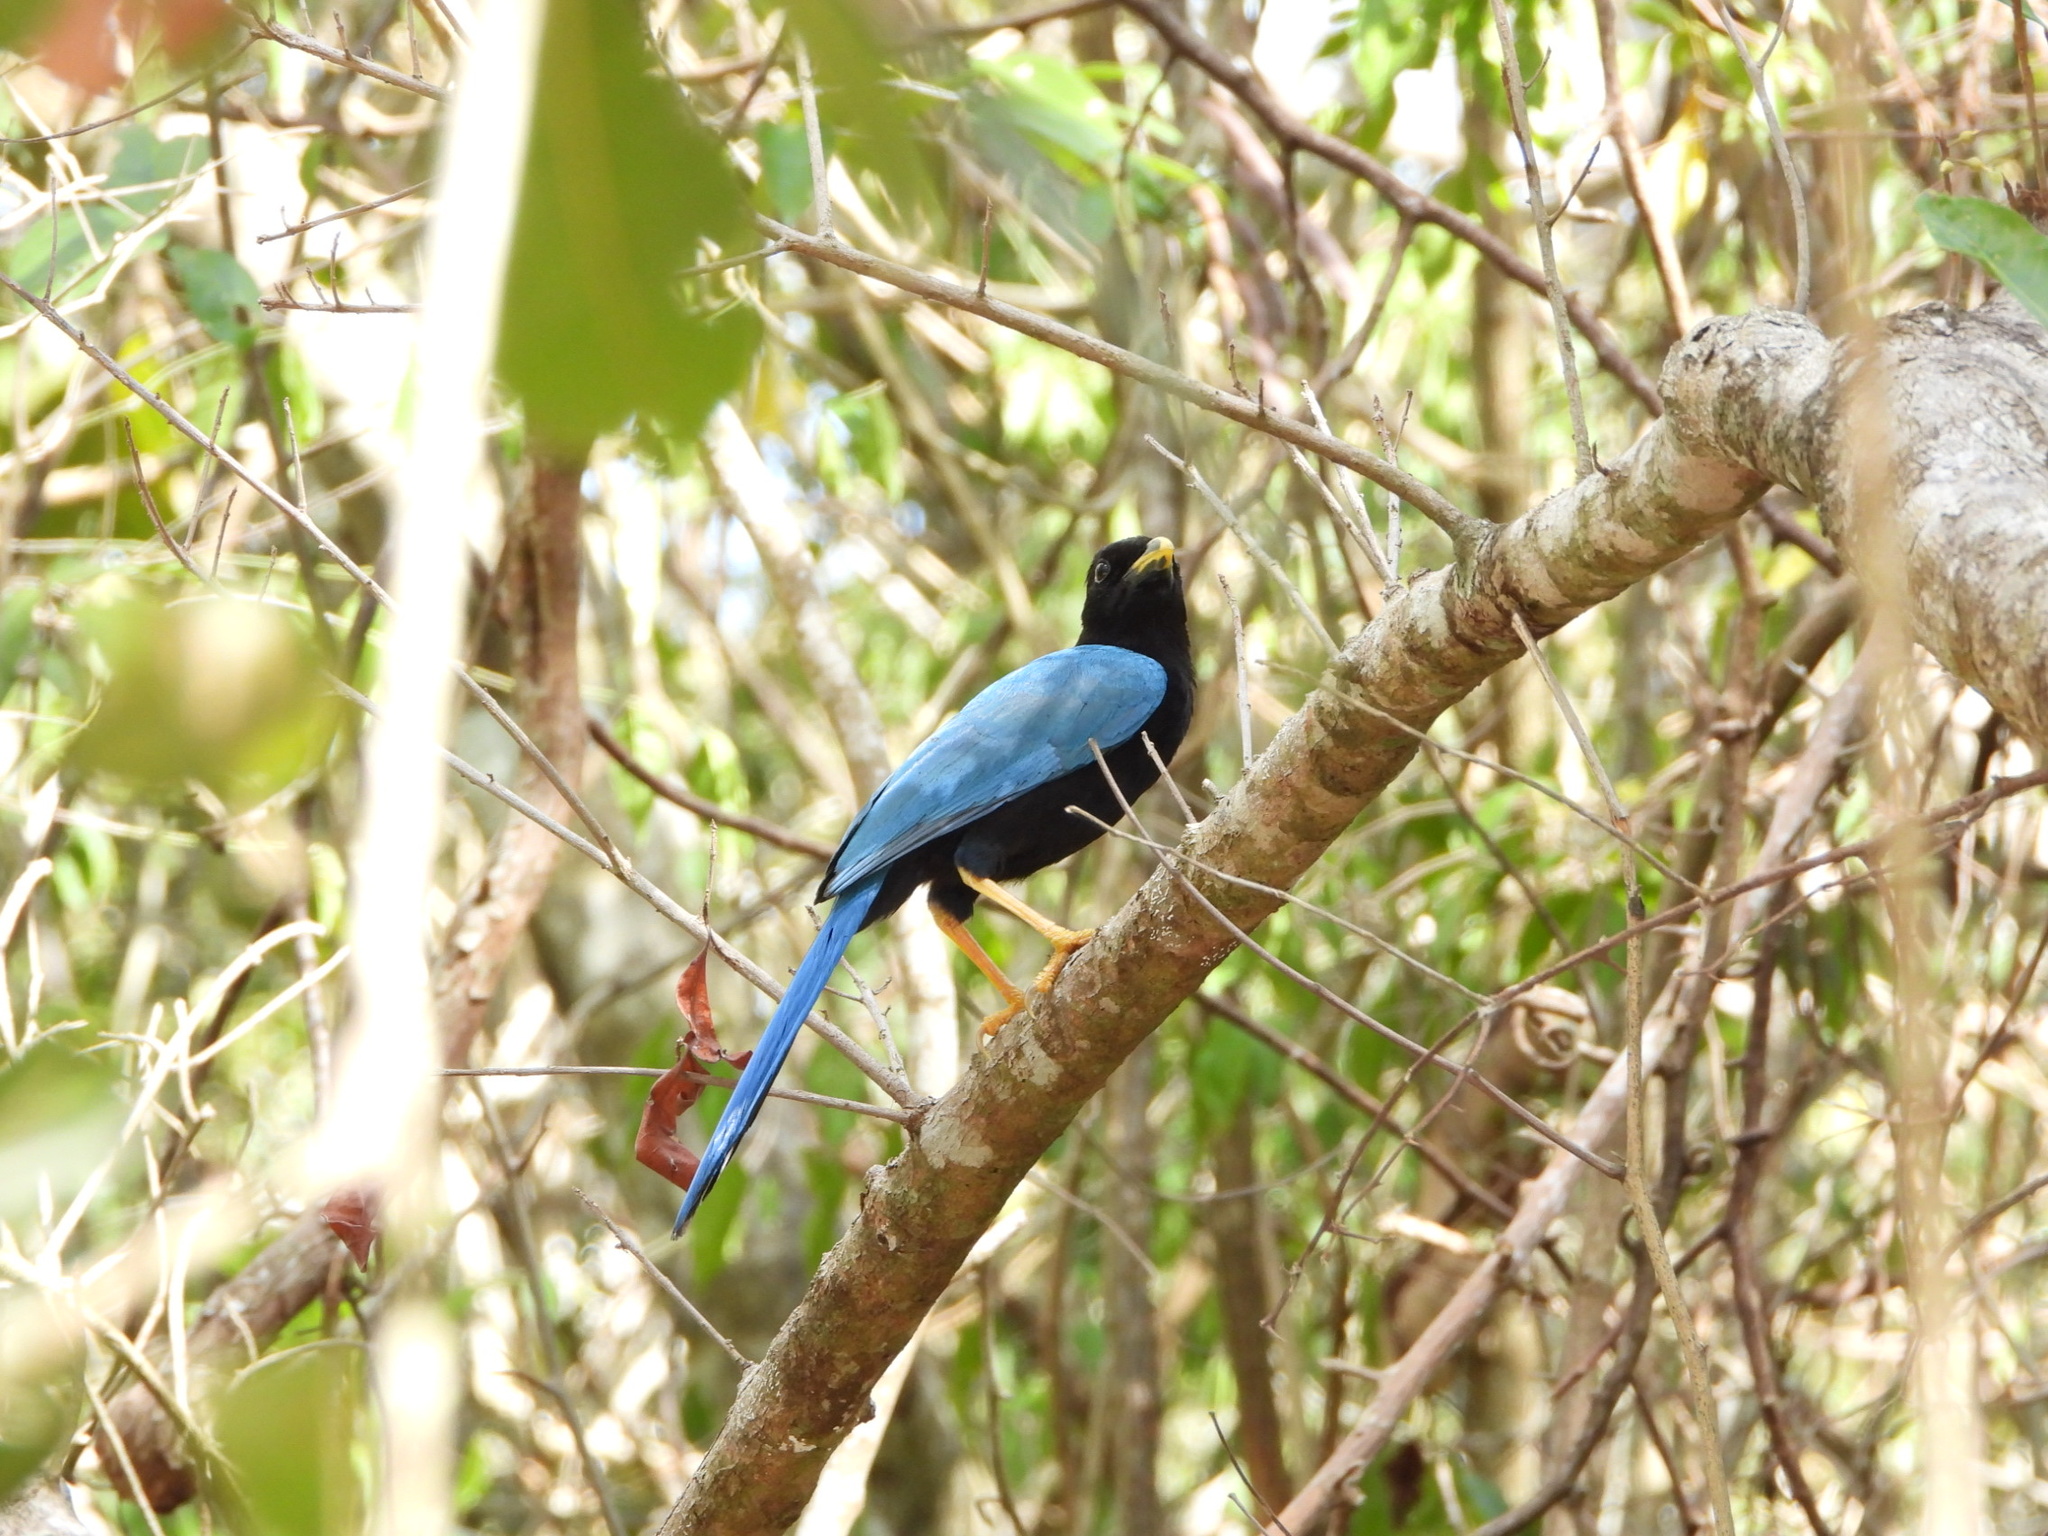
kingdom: Animalia
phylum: Chordata
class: Aves
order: Passeriformes
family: Corvidae
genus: Cyanocorax
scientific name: Cyanocorax yucatanicus
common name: Yucatan jay
